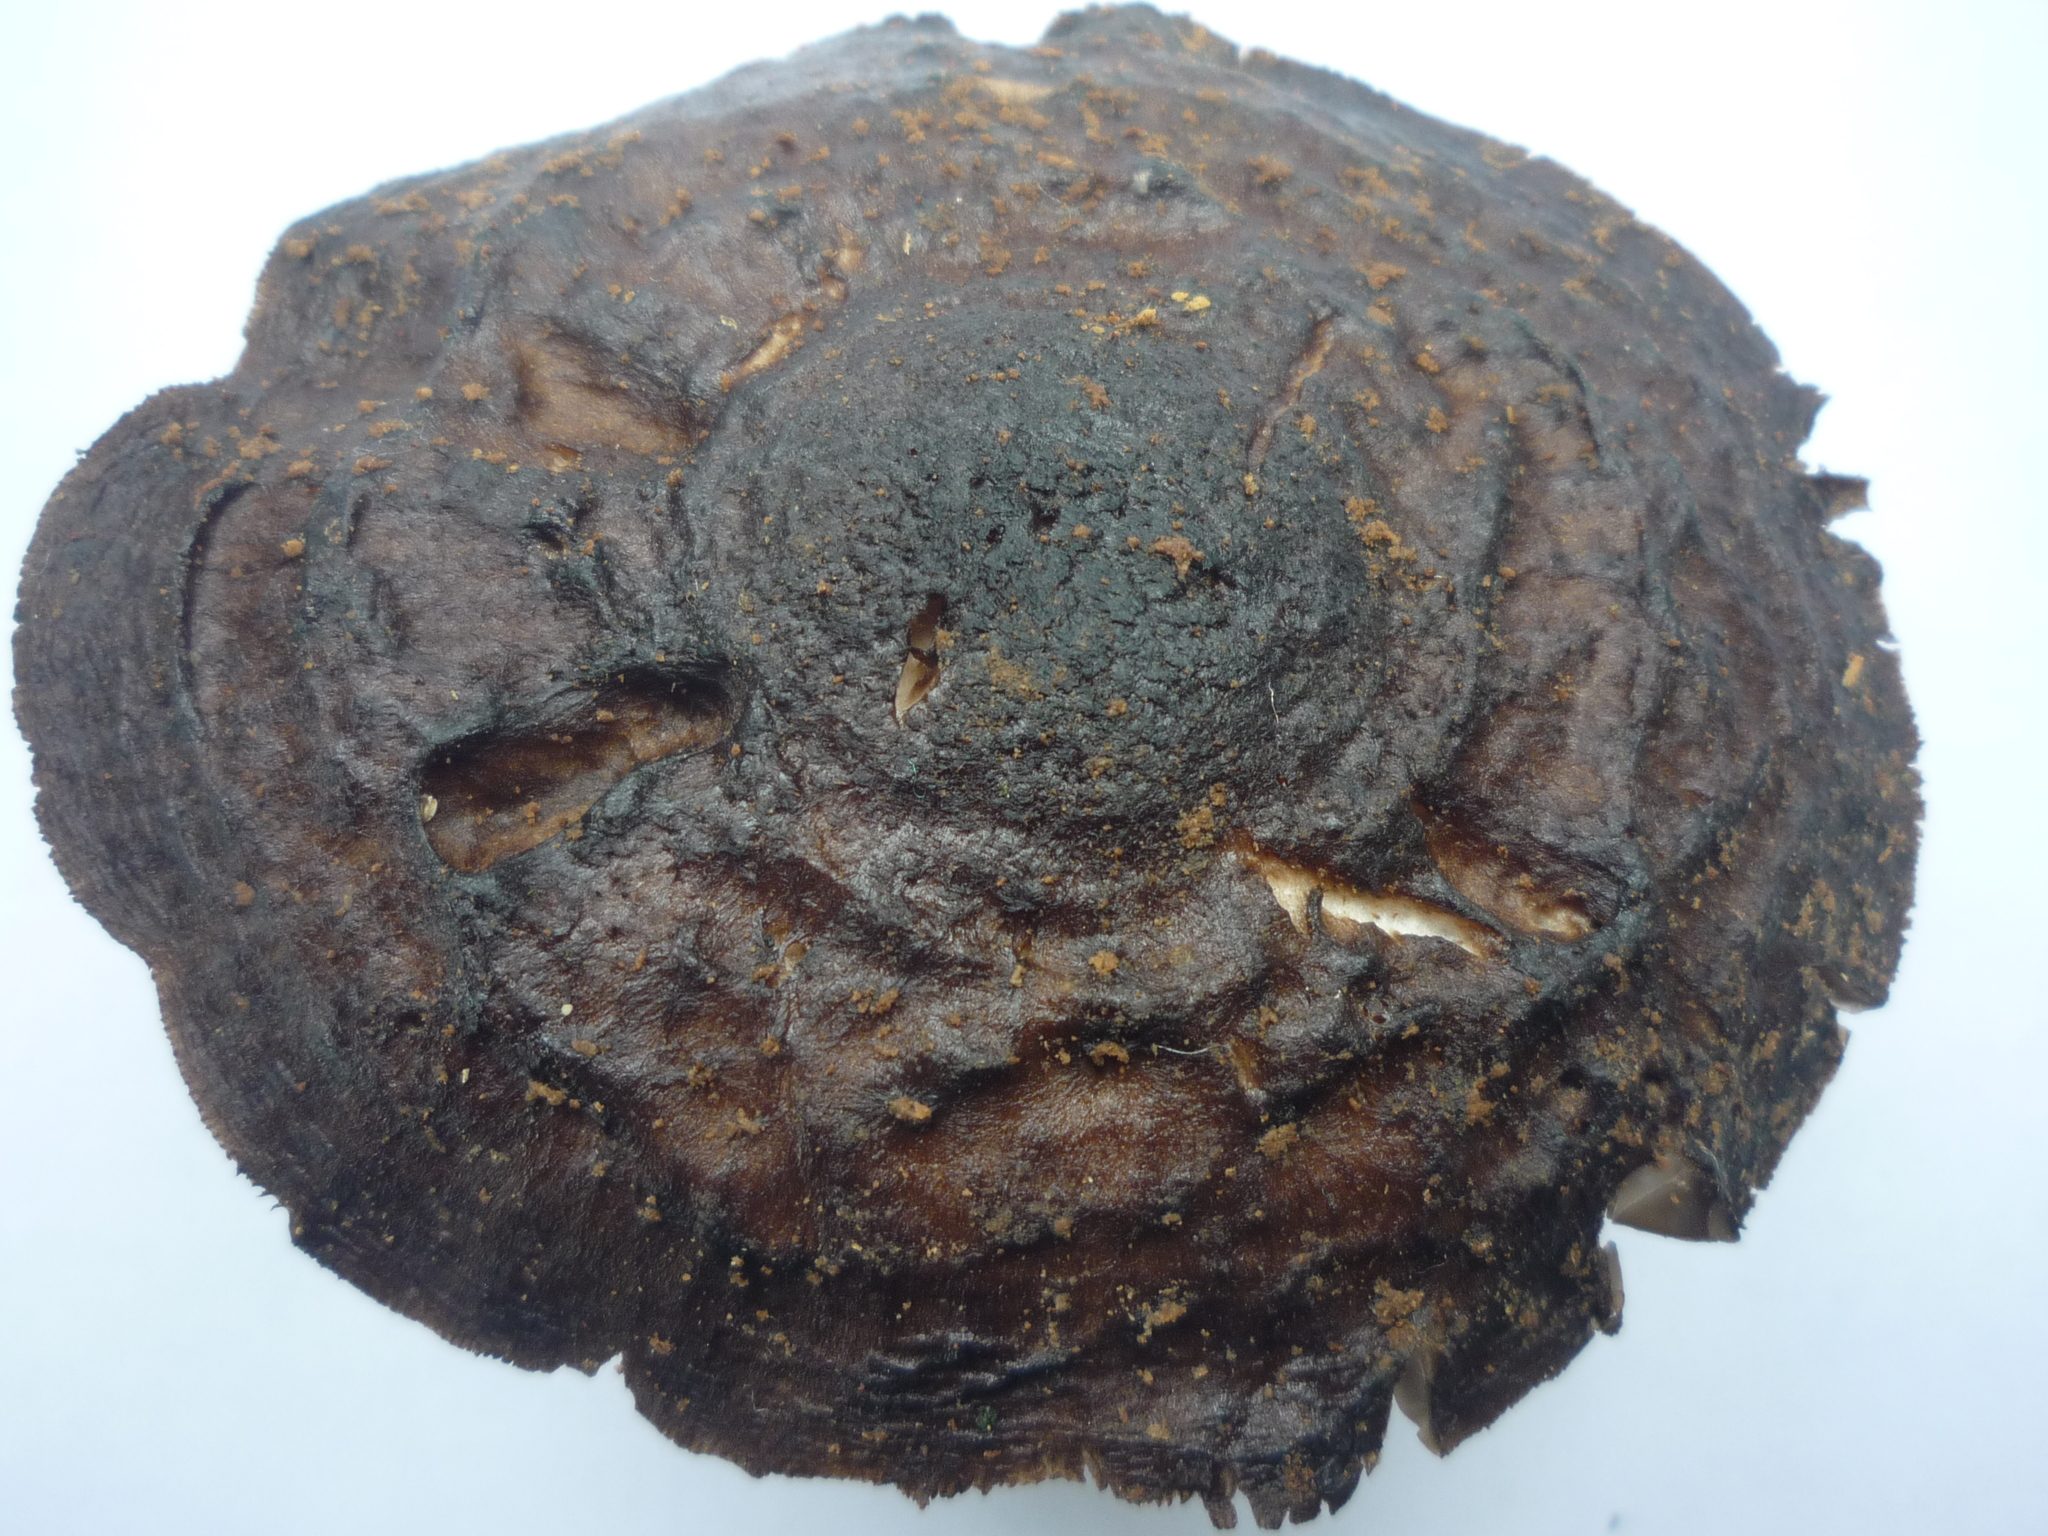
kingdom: Fungi
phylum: Basidiomycota
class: Agaricomycetes
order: Agaricales
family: Pluteaceae
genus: Pluteus
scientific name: Pluteus concentricus
